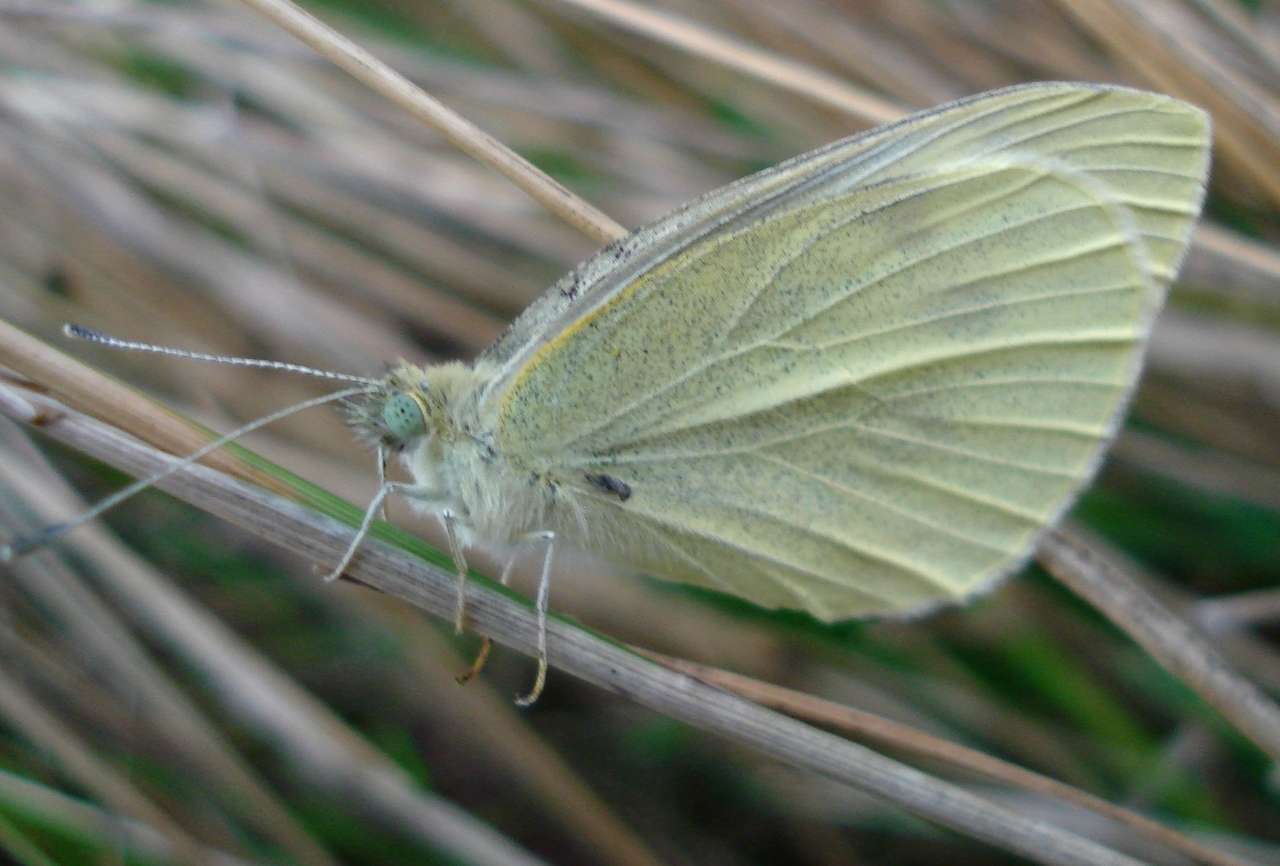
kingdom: Animalia
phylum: Arthropoda
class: Insecta
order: Lepidoptera
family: Pieridae
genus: Pieris
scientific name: Pieris rapae
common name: Small white
